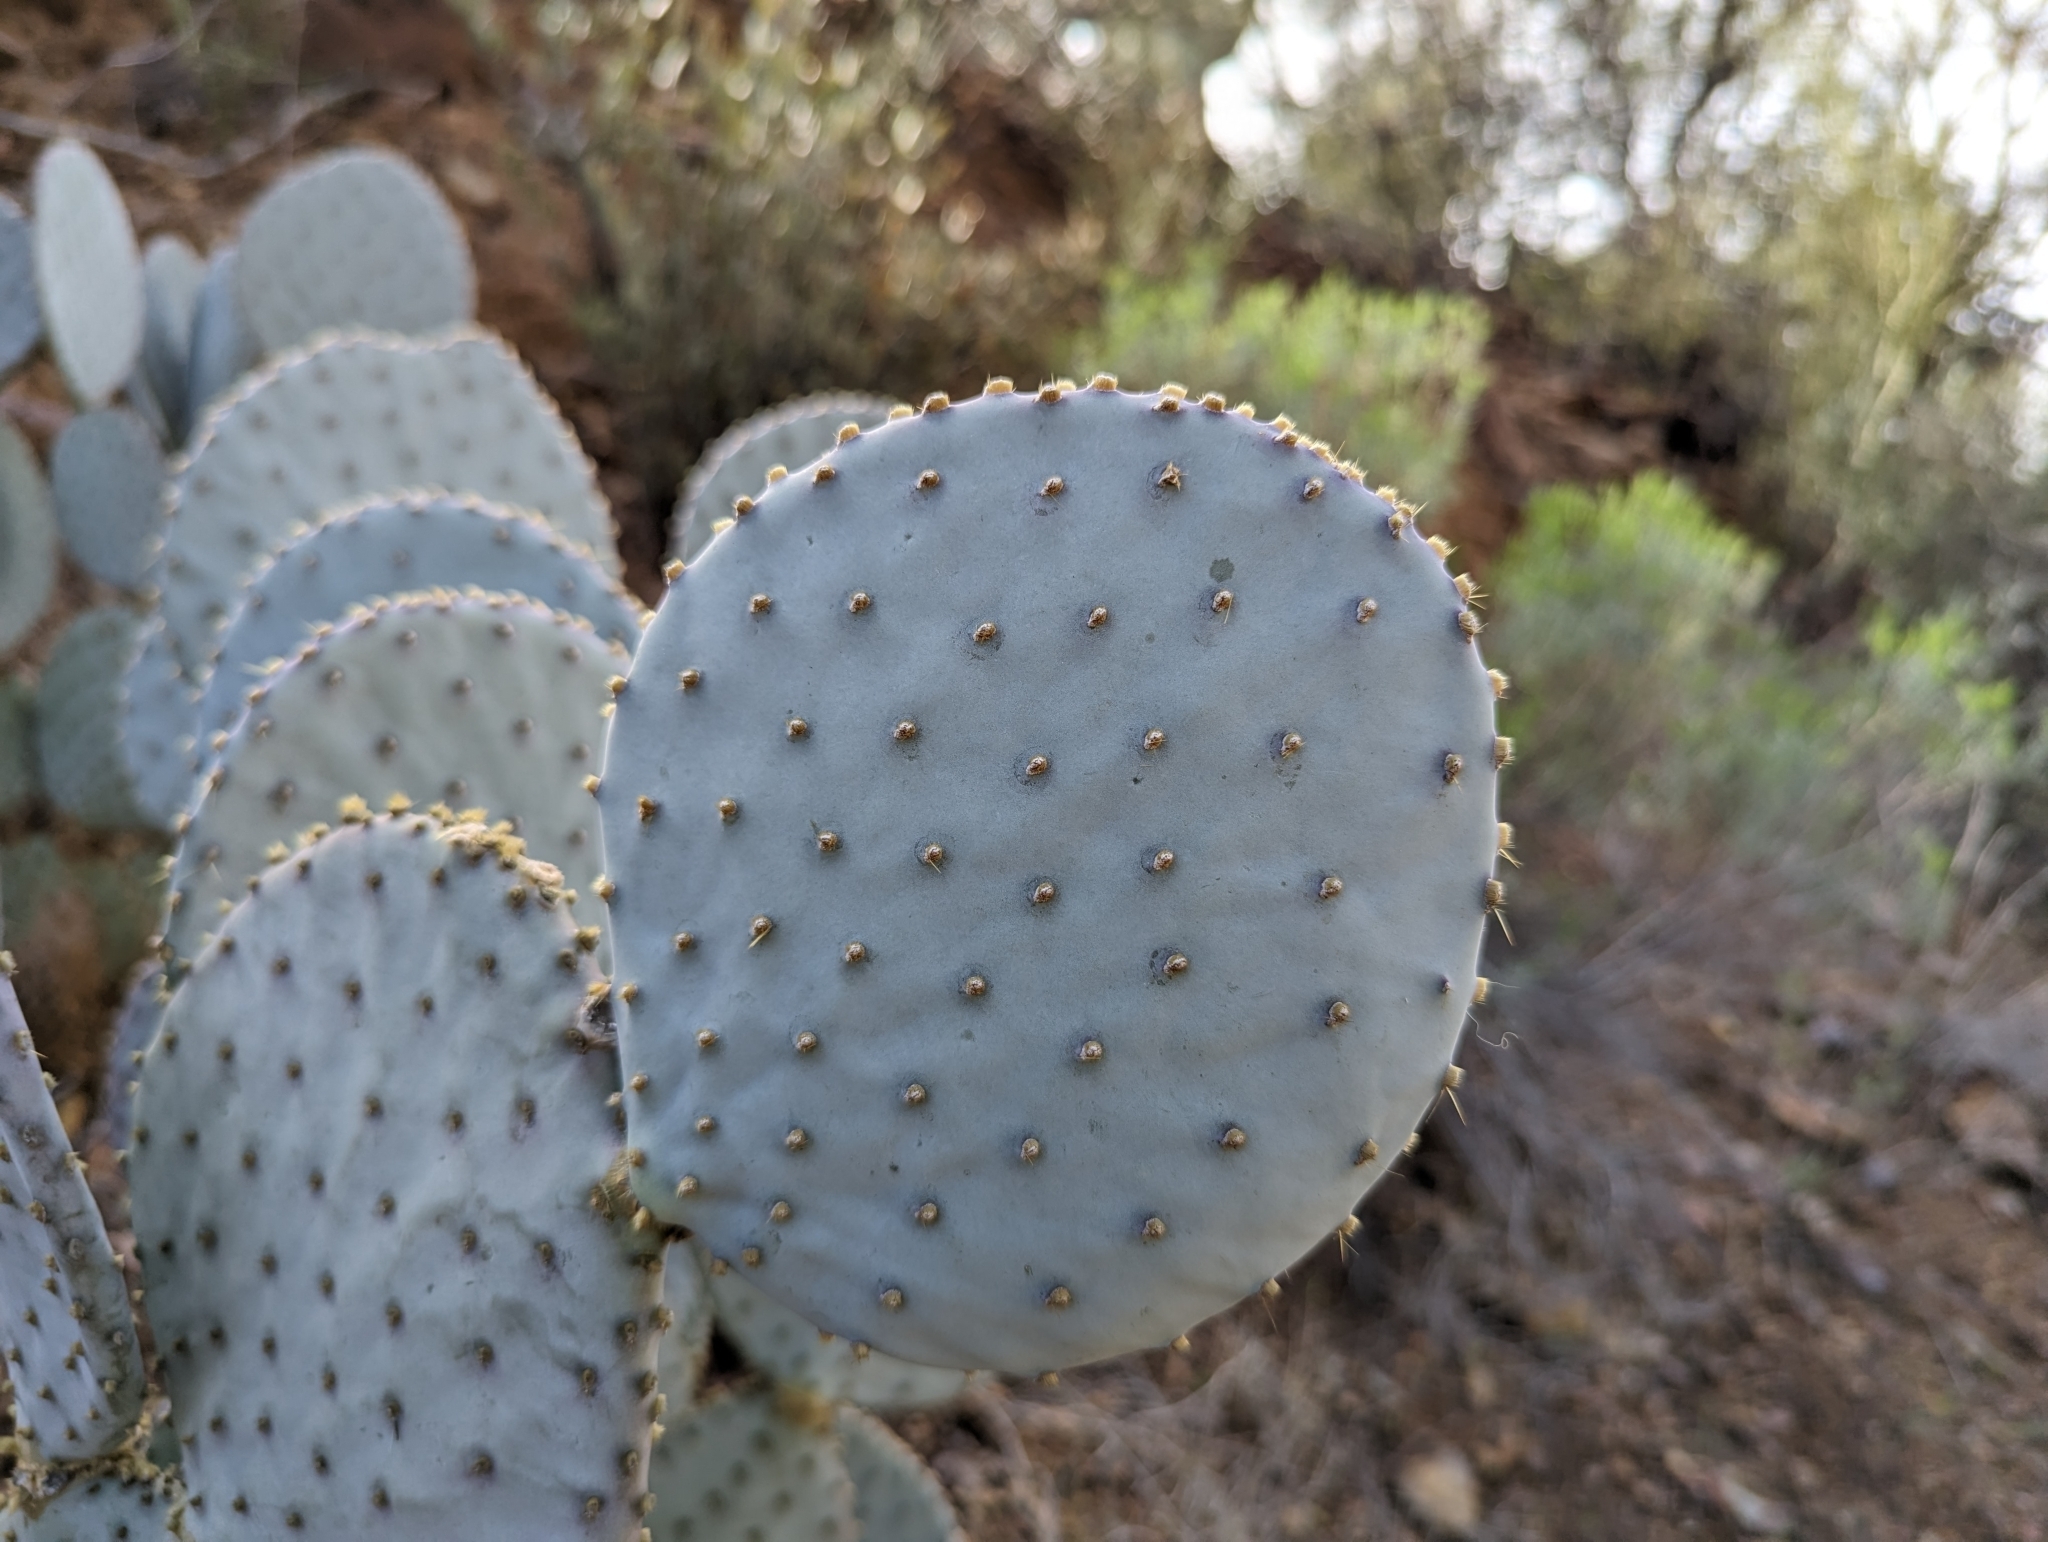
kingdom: Plantae
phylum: Tracheophyta
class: Magnoliopsida
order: Caryophyllales
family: Cactaceae
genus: Opuntia
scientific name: Opuntia gosseliniana
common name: Violet prickly-pear
